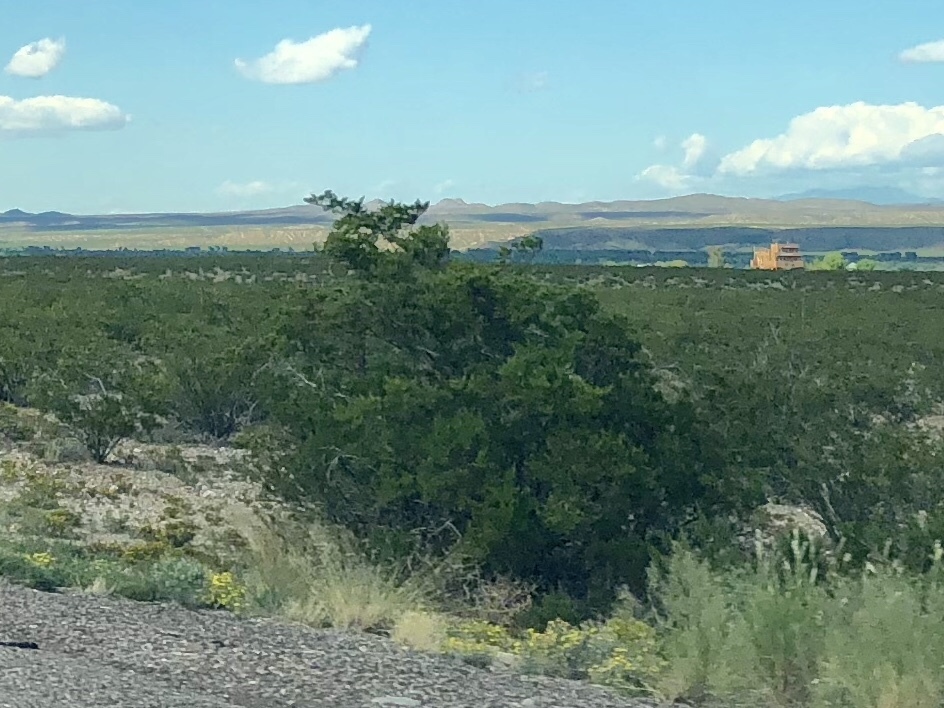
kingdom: Plantae
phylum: Tracheophyta
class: Magnoliopsida
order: Zygophyllales
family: Zygophyllaceae
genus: Larrea
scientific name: Larrea tridentata
